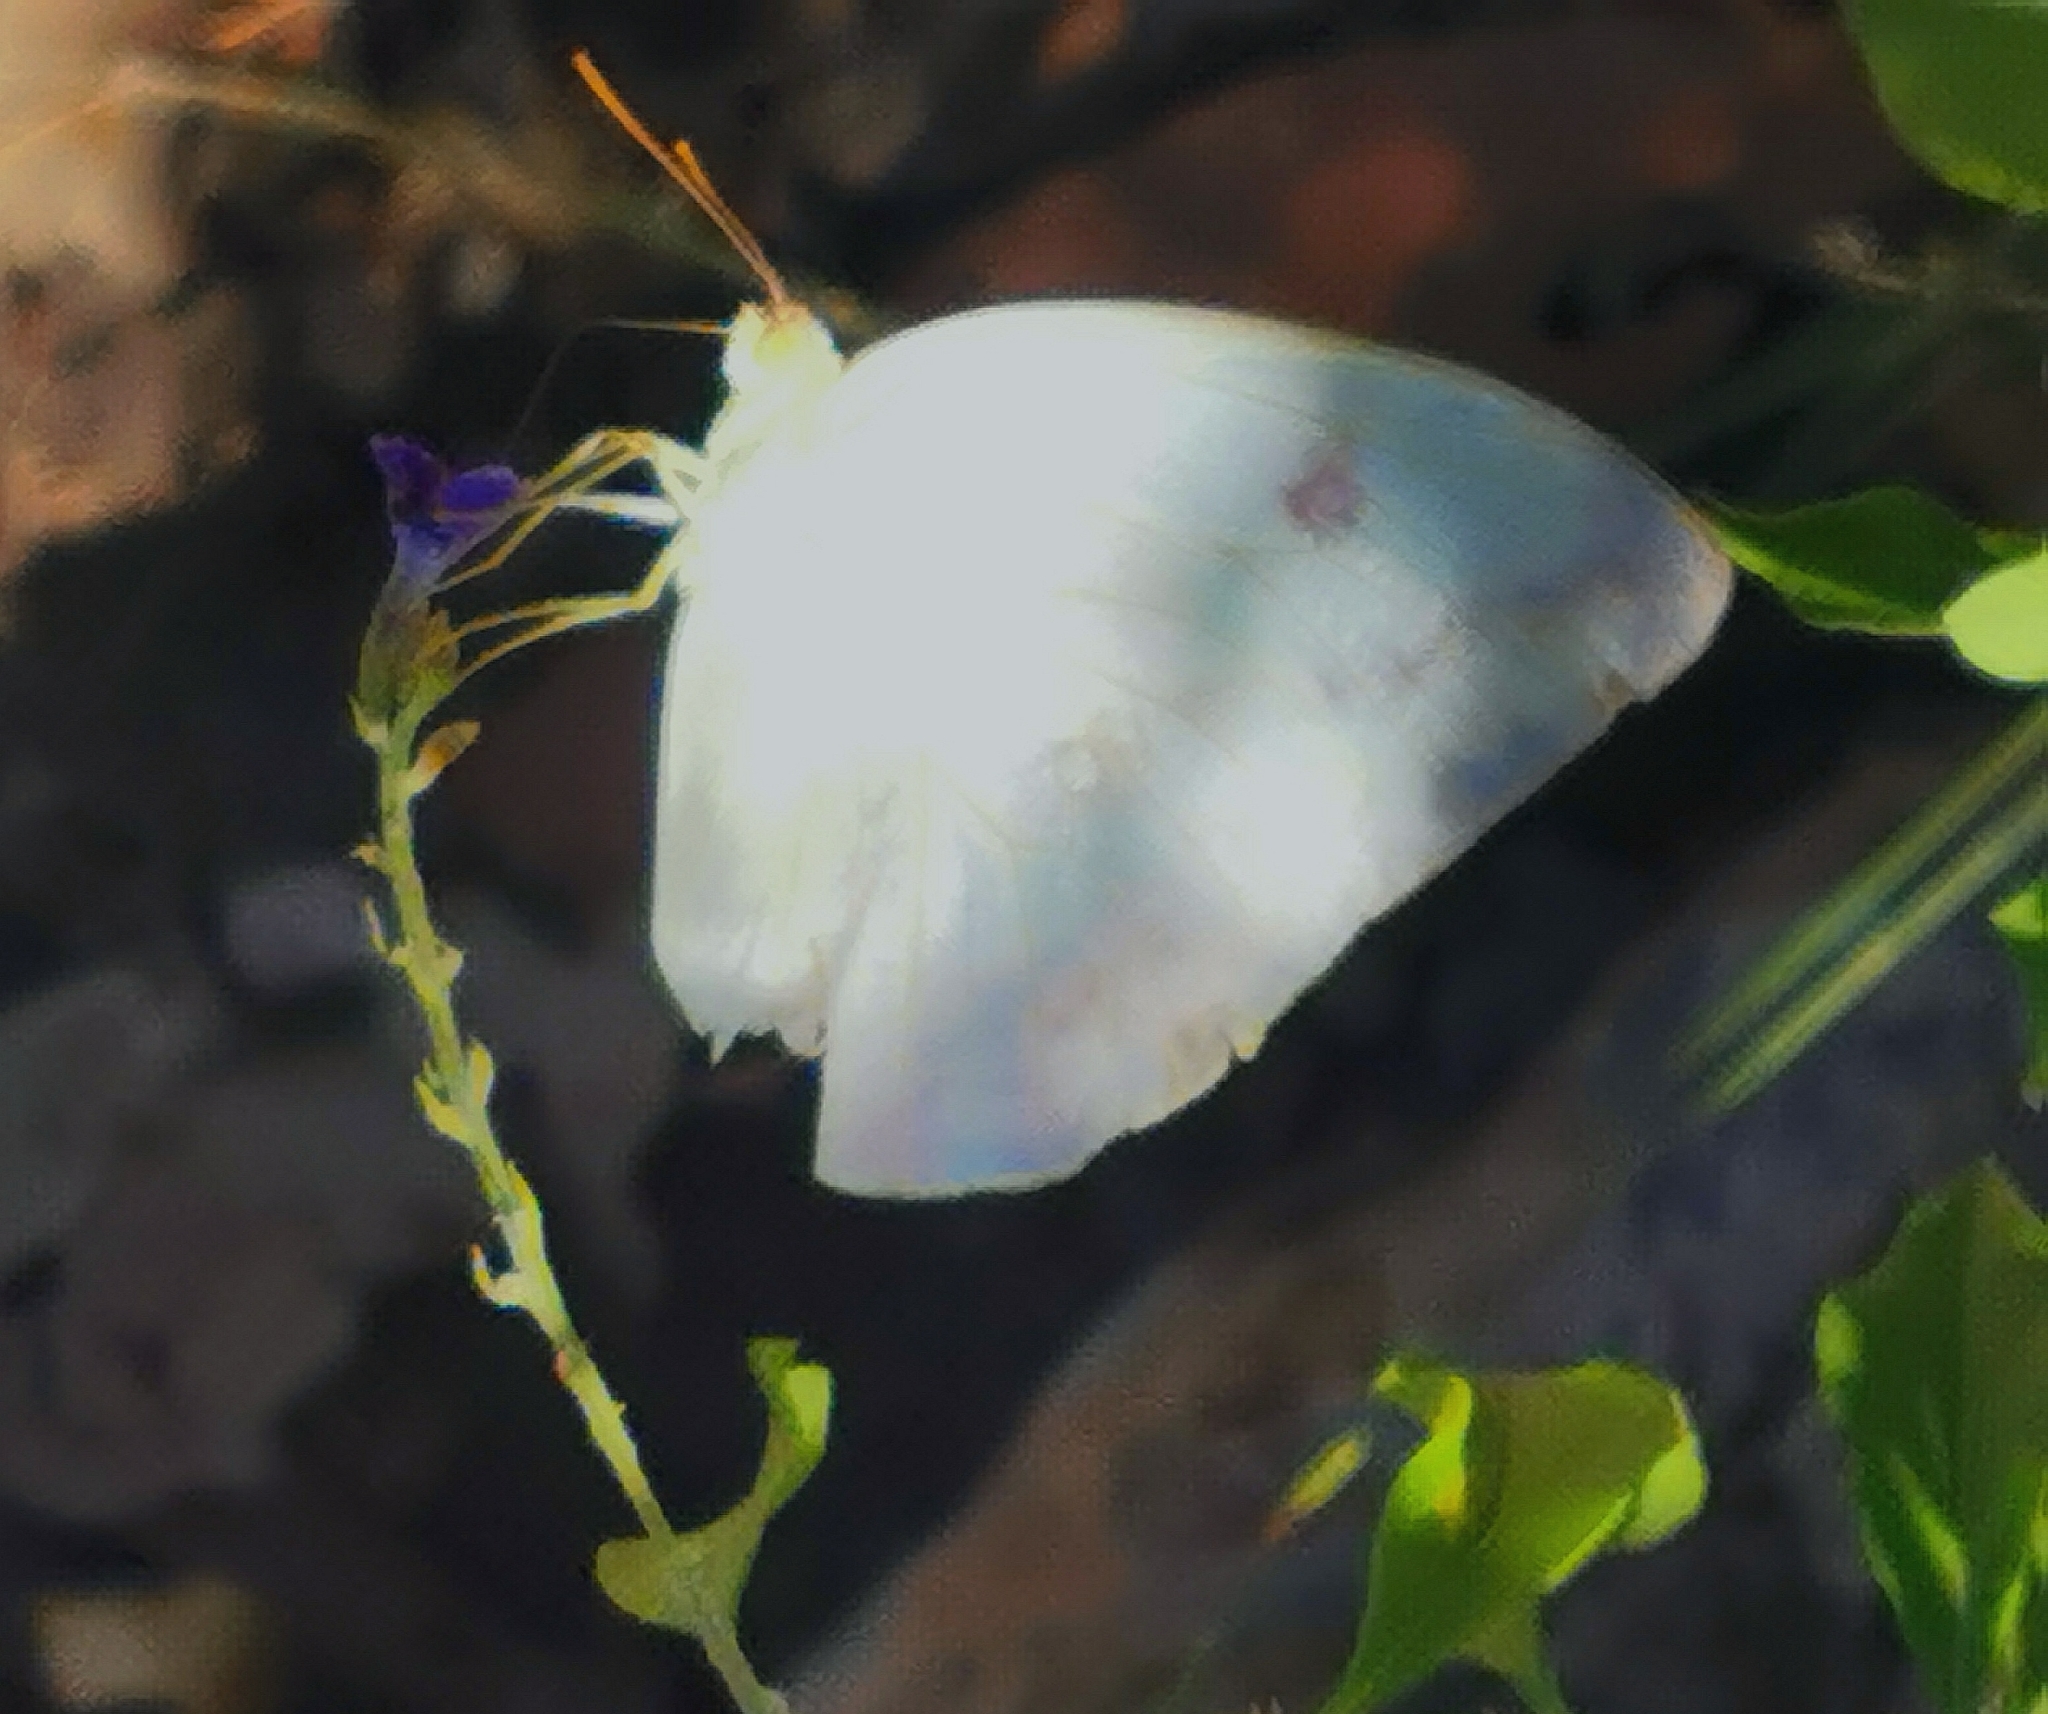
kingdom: Animalia
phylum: Arthropoda
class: Insecta
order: Lepidoptera
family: Pieridae
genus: Phoebis
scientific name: Phoebis agarithe
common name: Large orange sulphur
